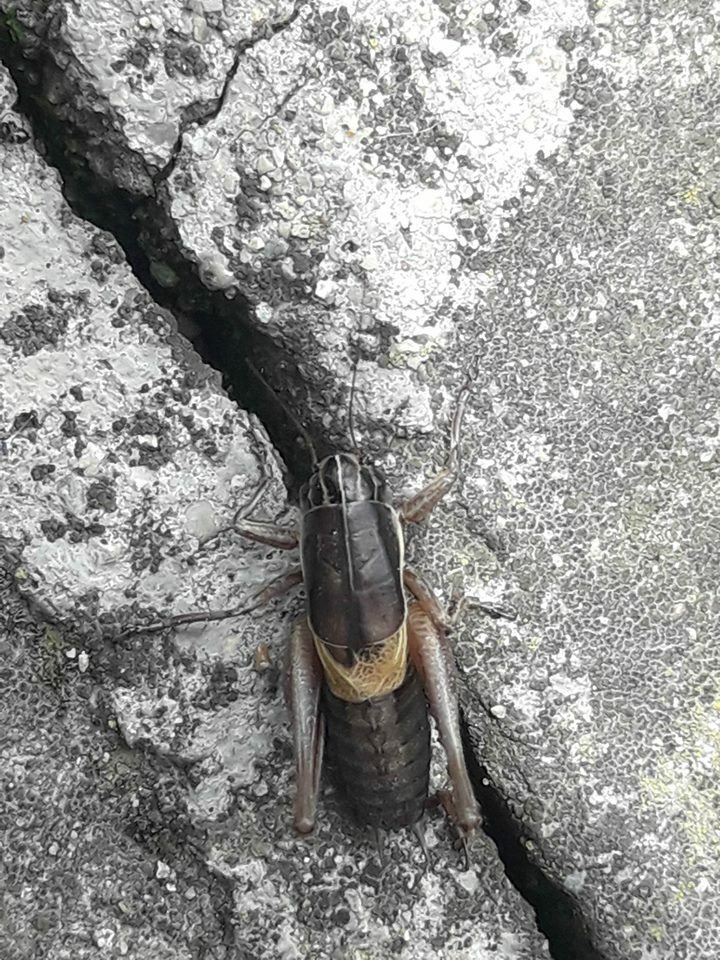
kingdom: Animalia
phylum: Arthropoda
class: Insecta
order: Orthoptera
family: Tettigoniidae
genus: Pholidoptera
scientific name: Pholidoptera brevipes
